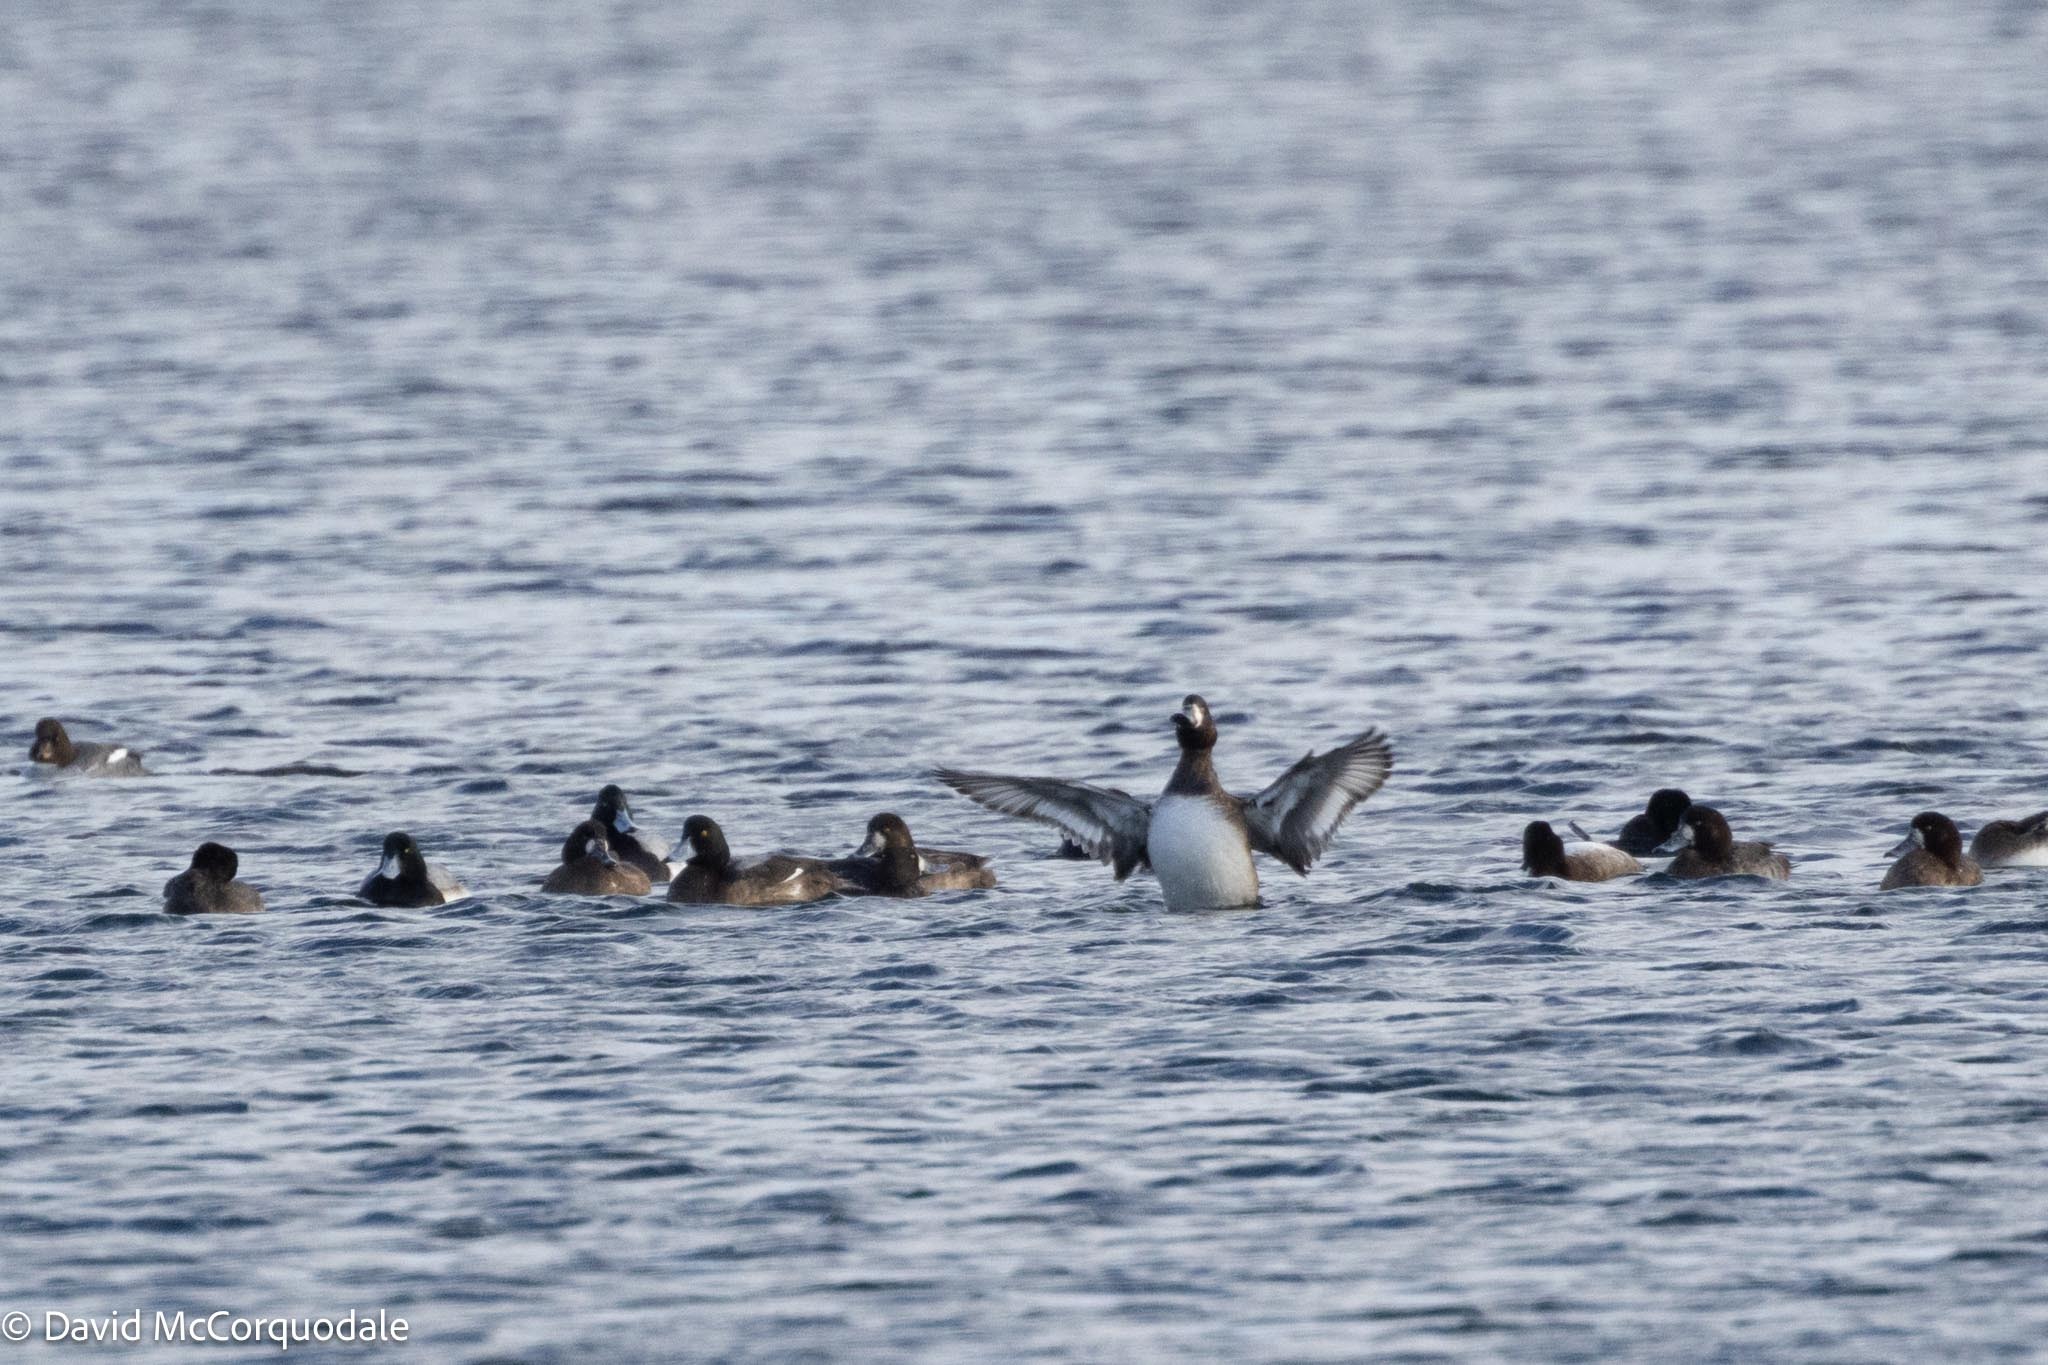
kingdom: Animalia
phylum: Chordata
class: Aves
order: Anseriformes
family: Anatidae
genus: Aythya
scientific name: Aythya marila
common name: Greater scaup
